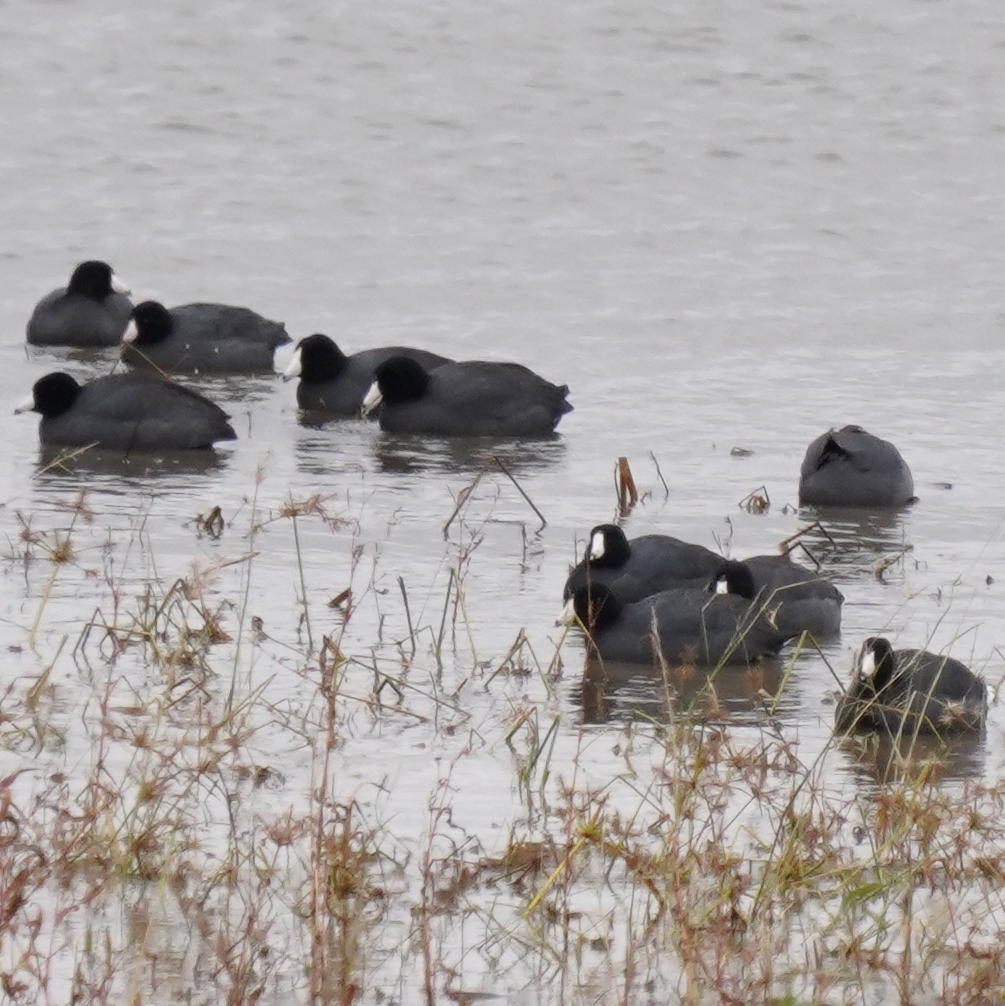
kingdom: Animalia
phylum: Chordata
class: Aves
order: Gruiformes
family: Rallidae
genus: Fulica
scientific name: Fulica americana
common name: American coot
